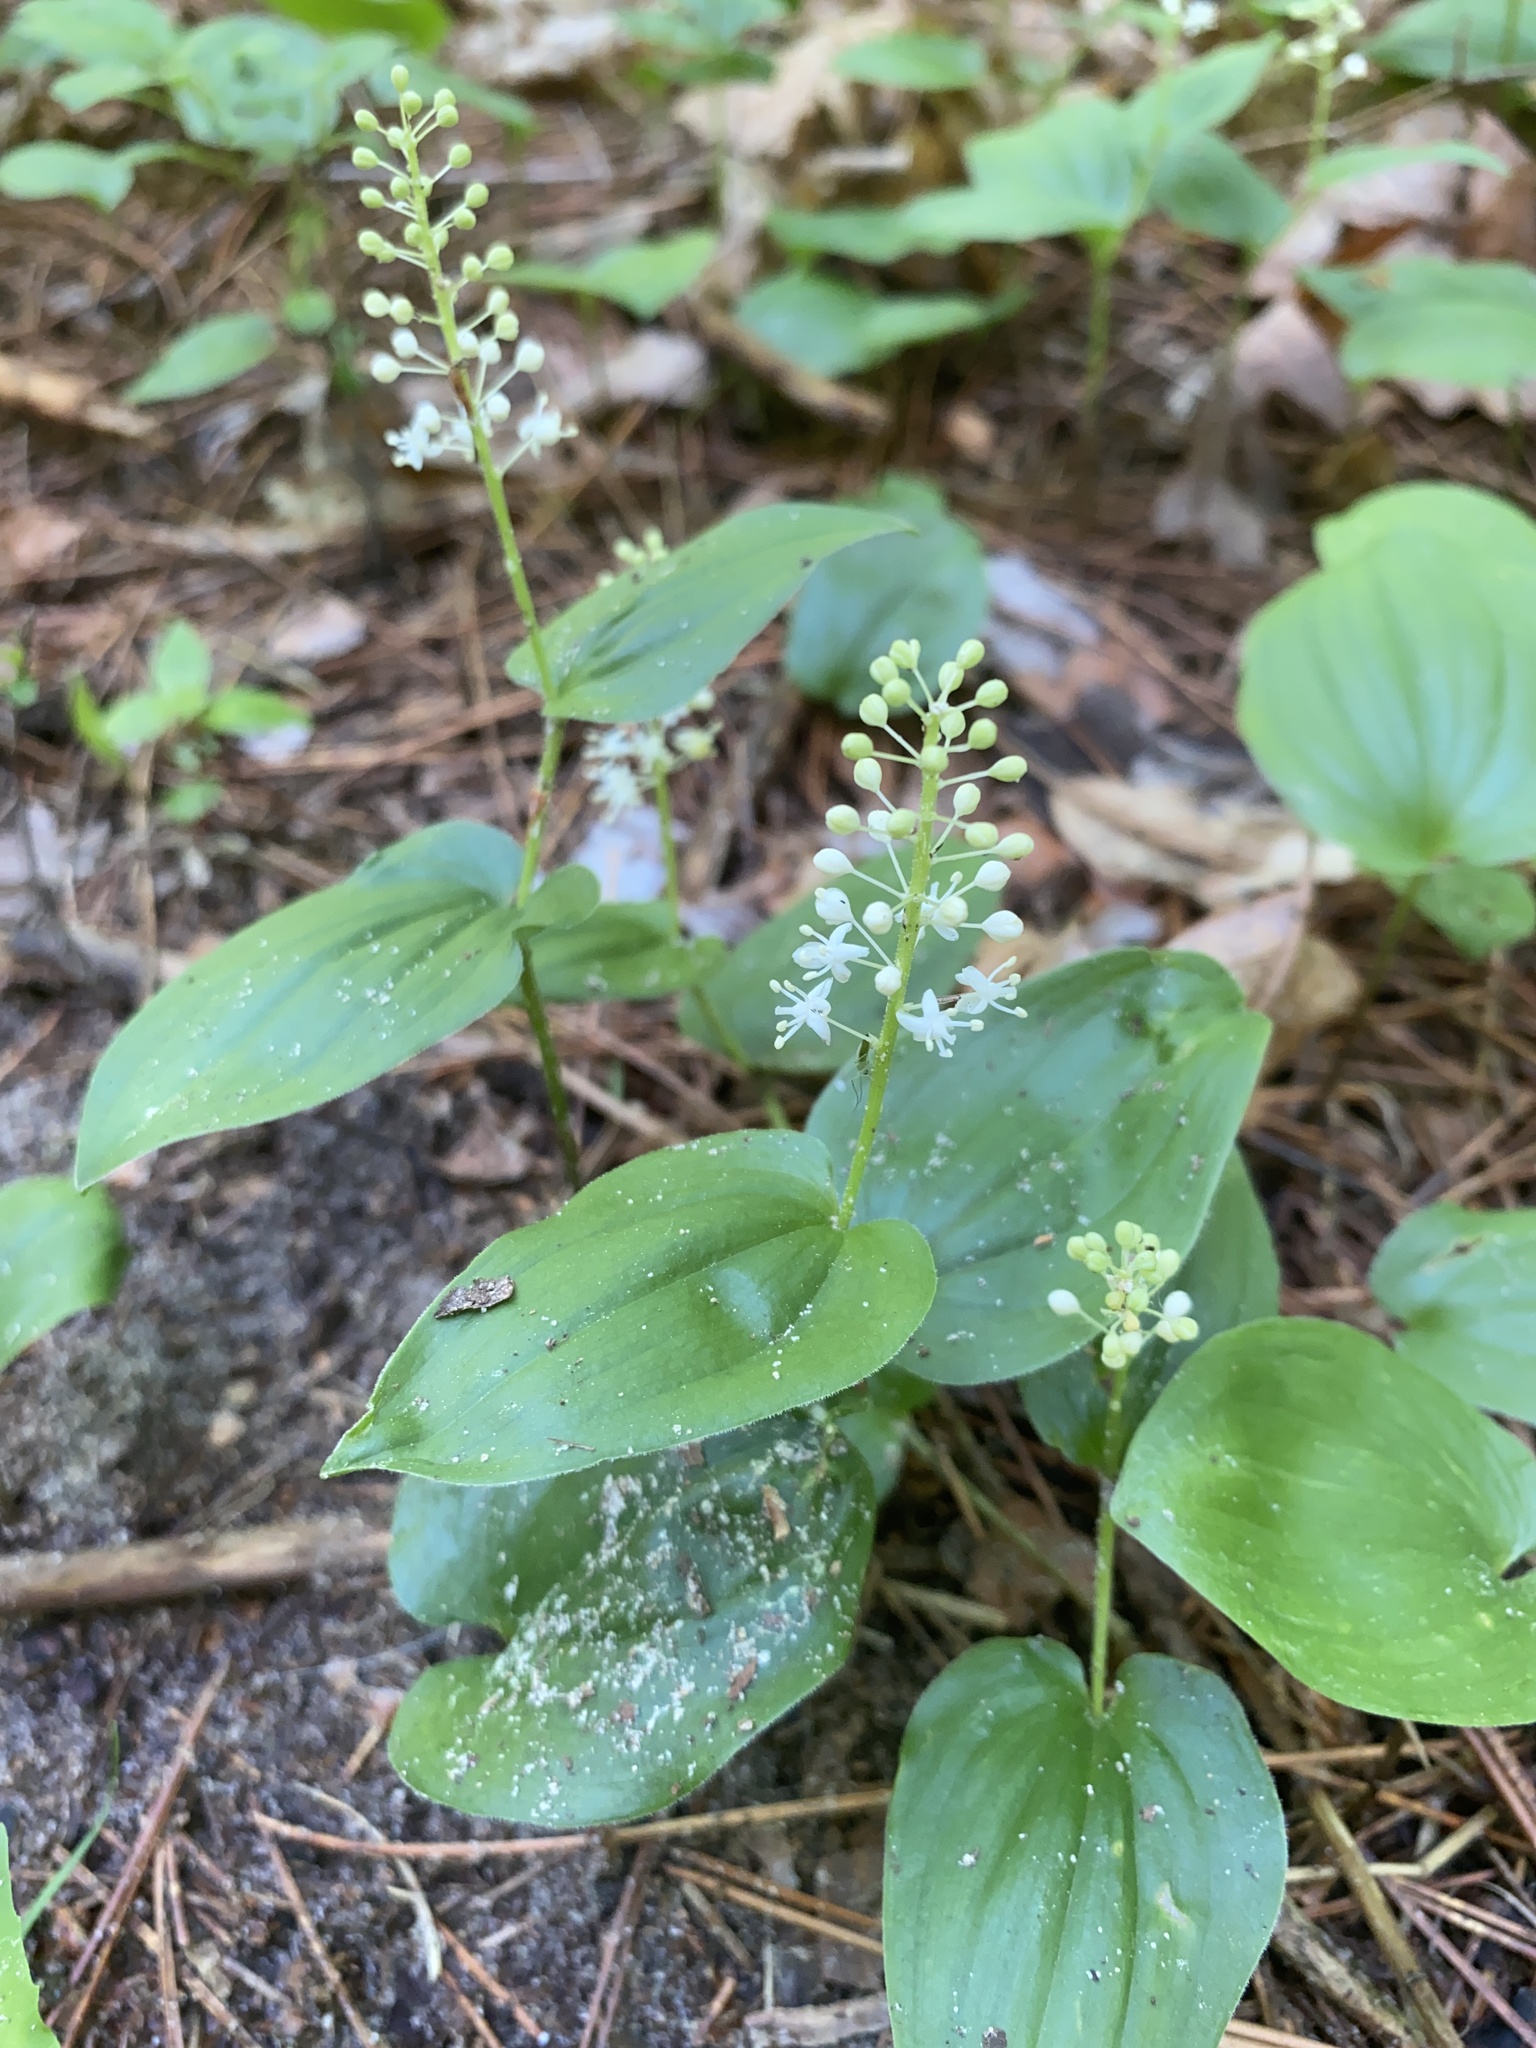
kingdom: Plantae
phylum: Tracheophyta
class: Liliopsida
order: Asparagales
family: Asparagaceae
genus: Maianthemum
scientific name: Maianthemum canadense
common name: False lily-of-the-valley
